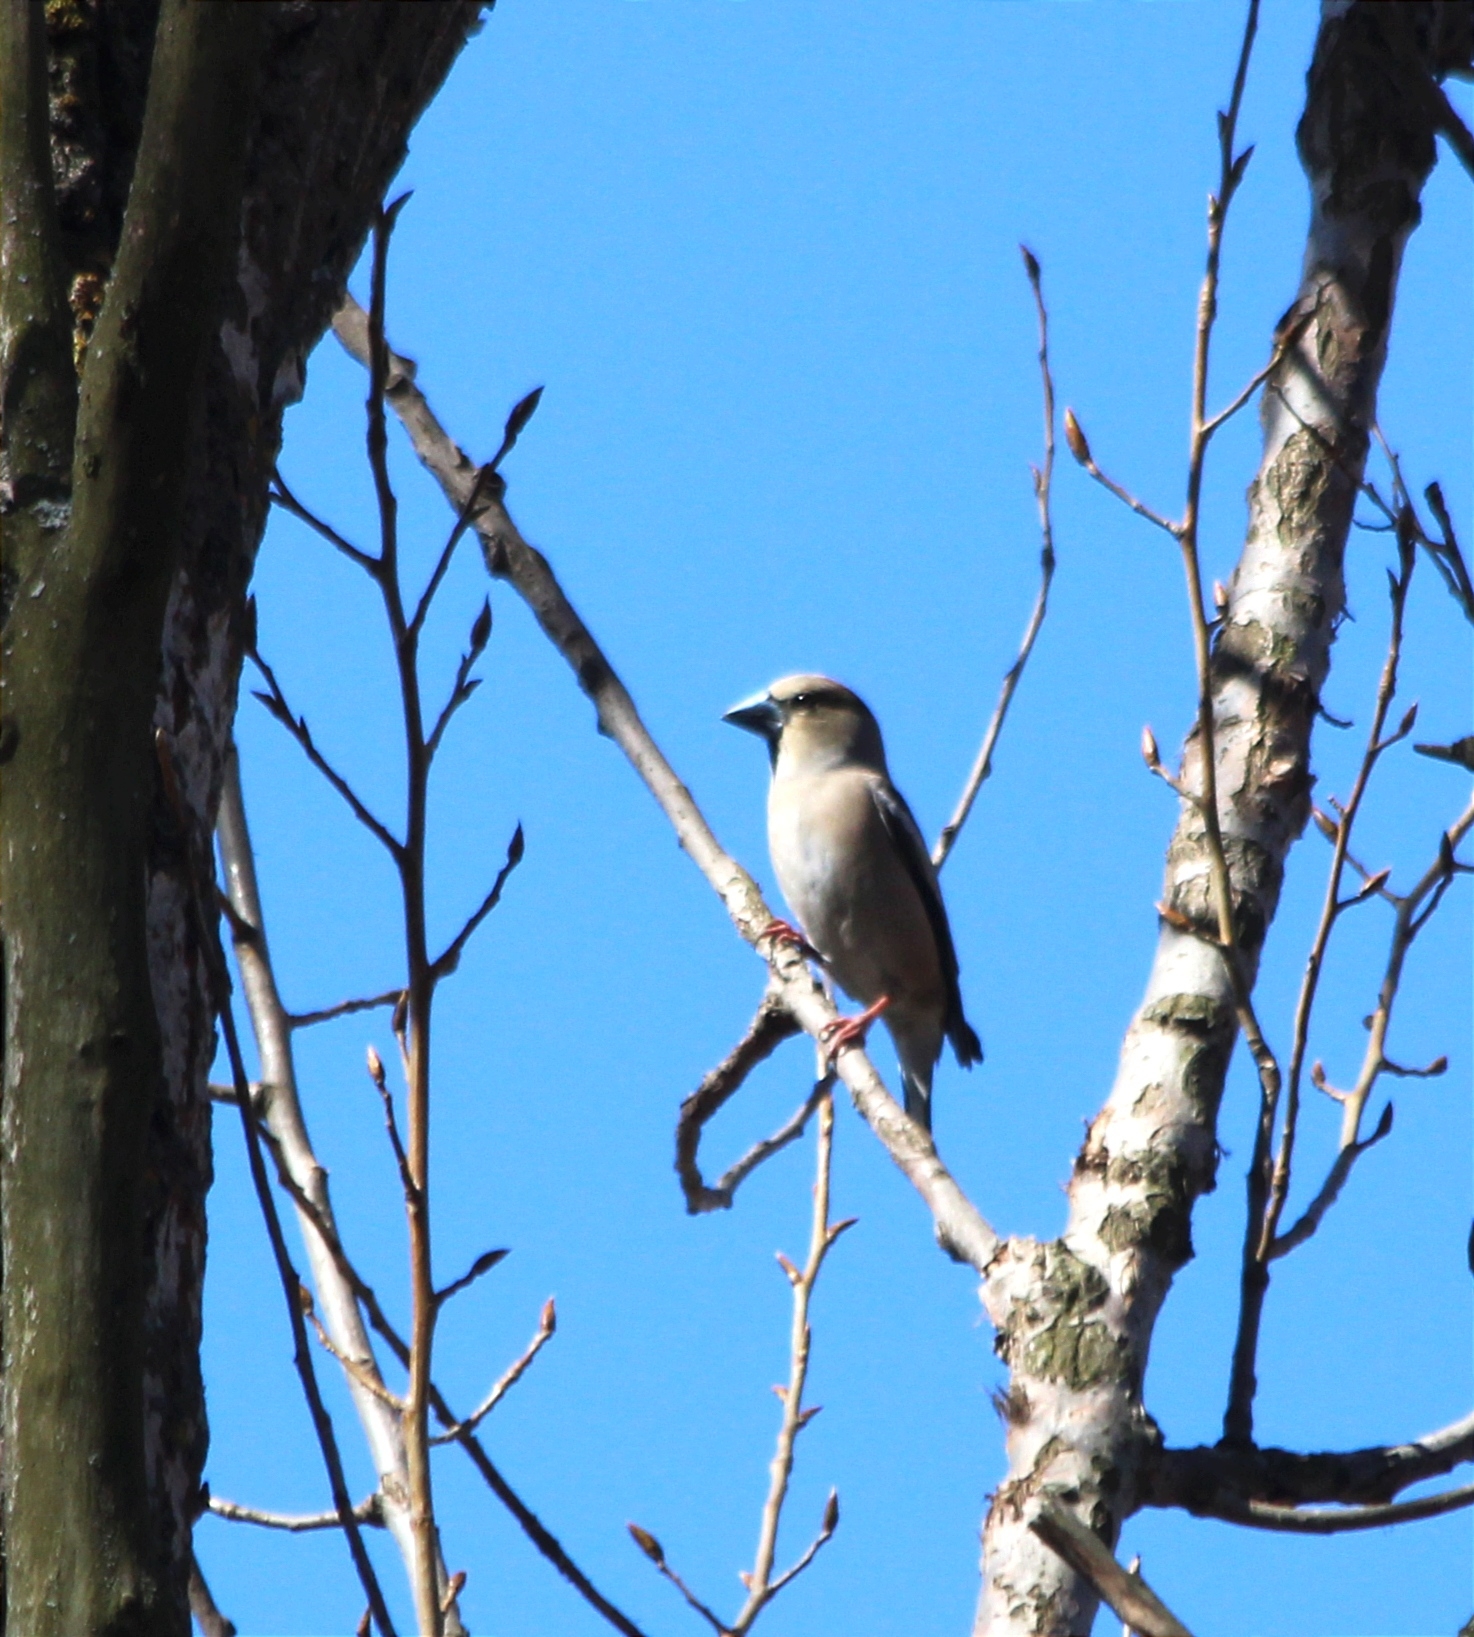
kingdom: Animalia
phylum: Chordata
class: Aves
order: Passeriformes
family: Fringillidae
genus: Coccothraustes
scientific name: Coccothraustes coccothraustes
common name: Hawfinch
